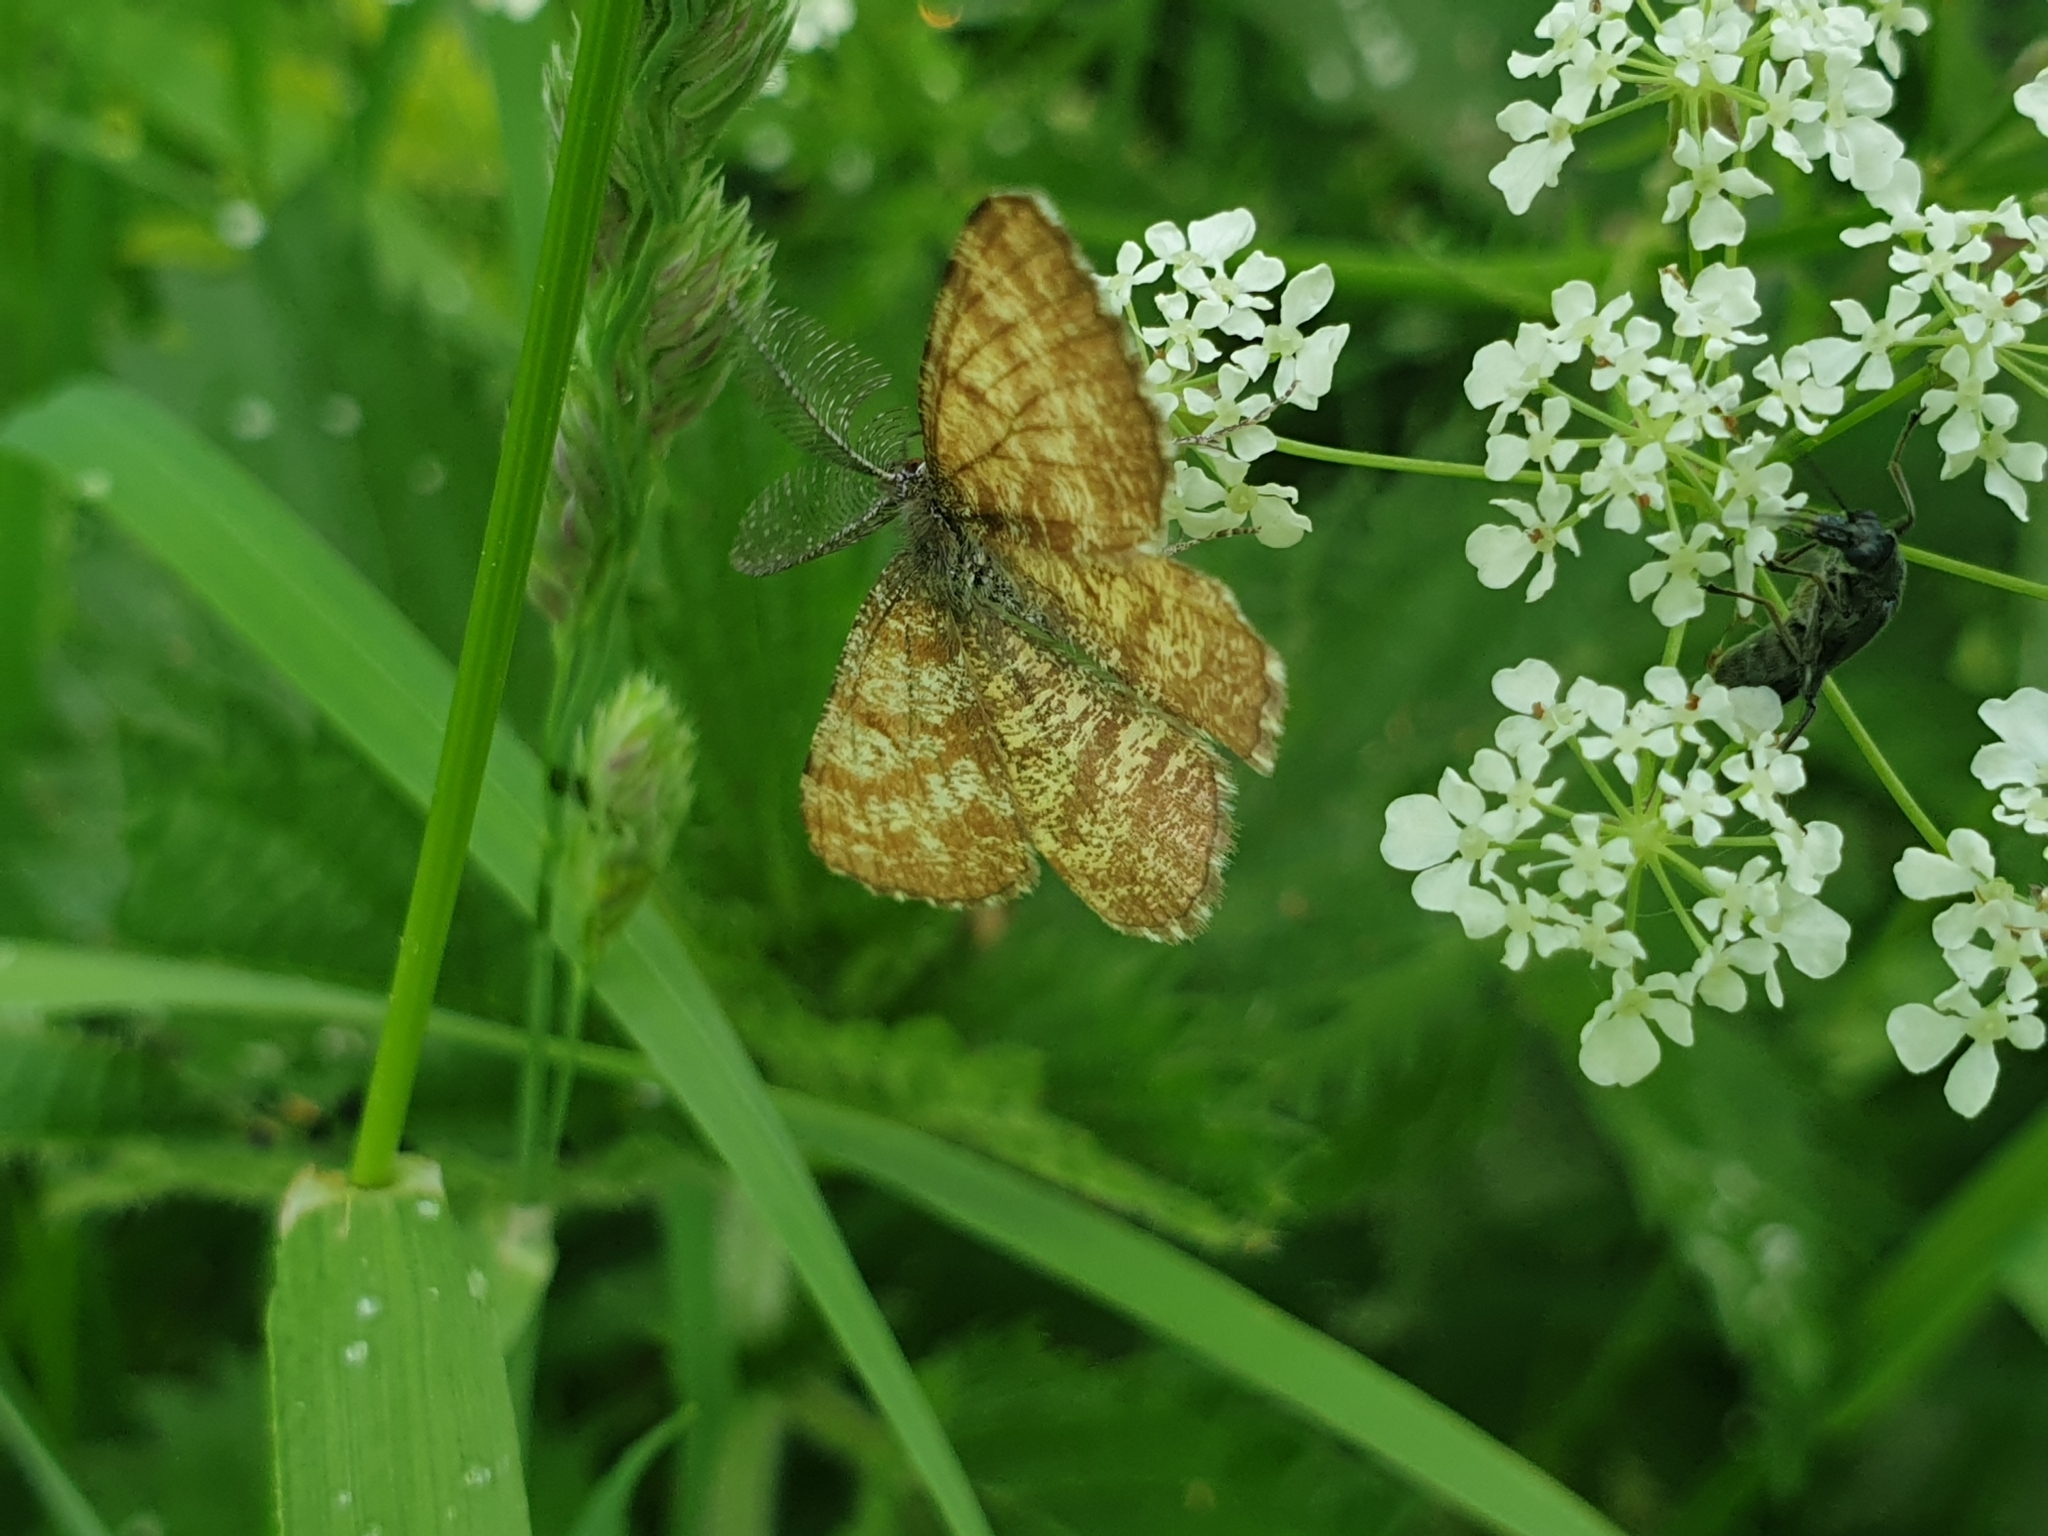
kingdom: Animalia
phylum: Arthropoda
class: Insecta
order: Lepidoptera
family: Geometridae
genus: Ematurga
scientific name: Ematurga atomaria
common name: Common heath
